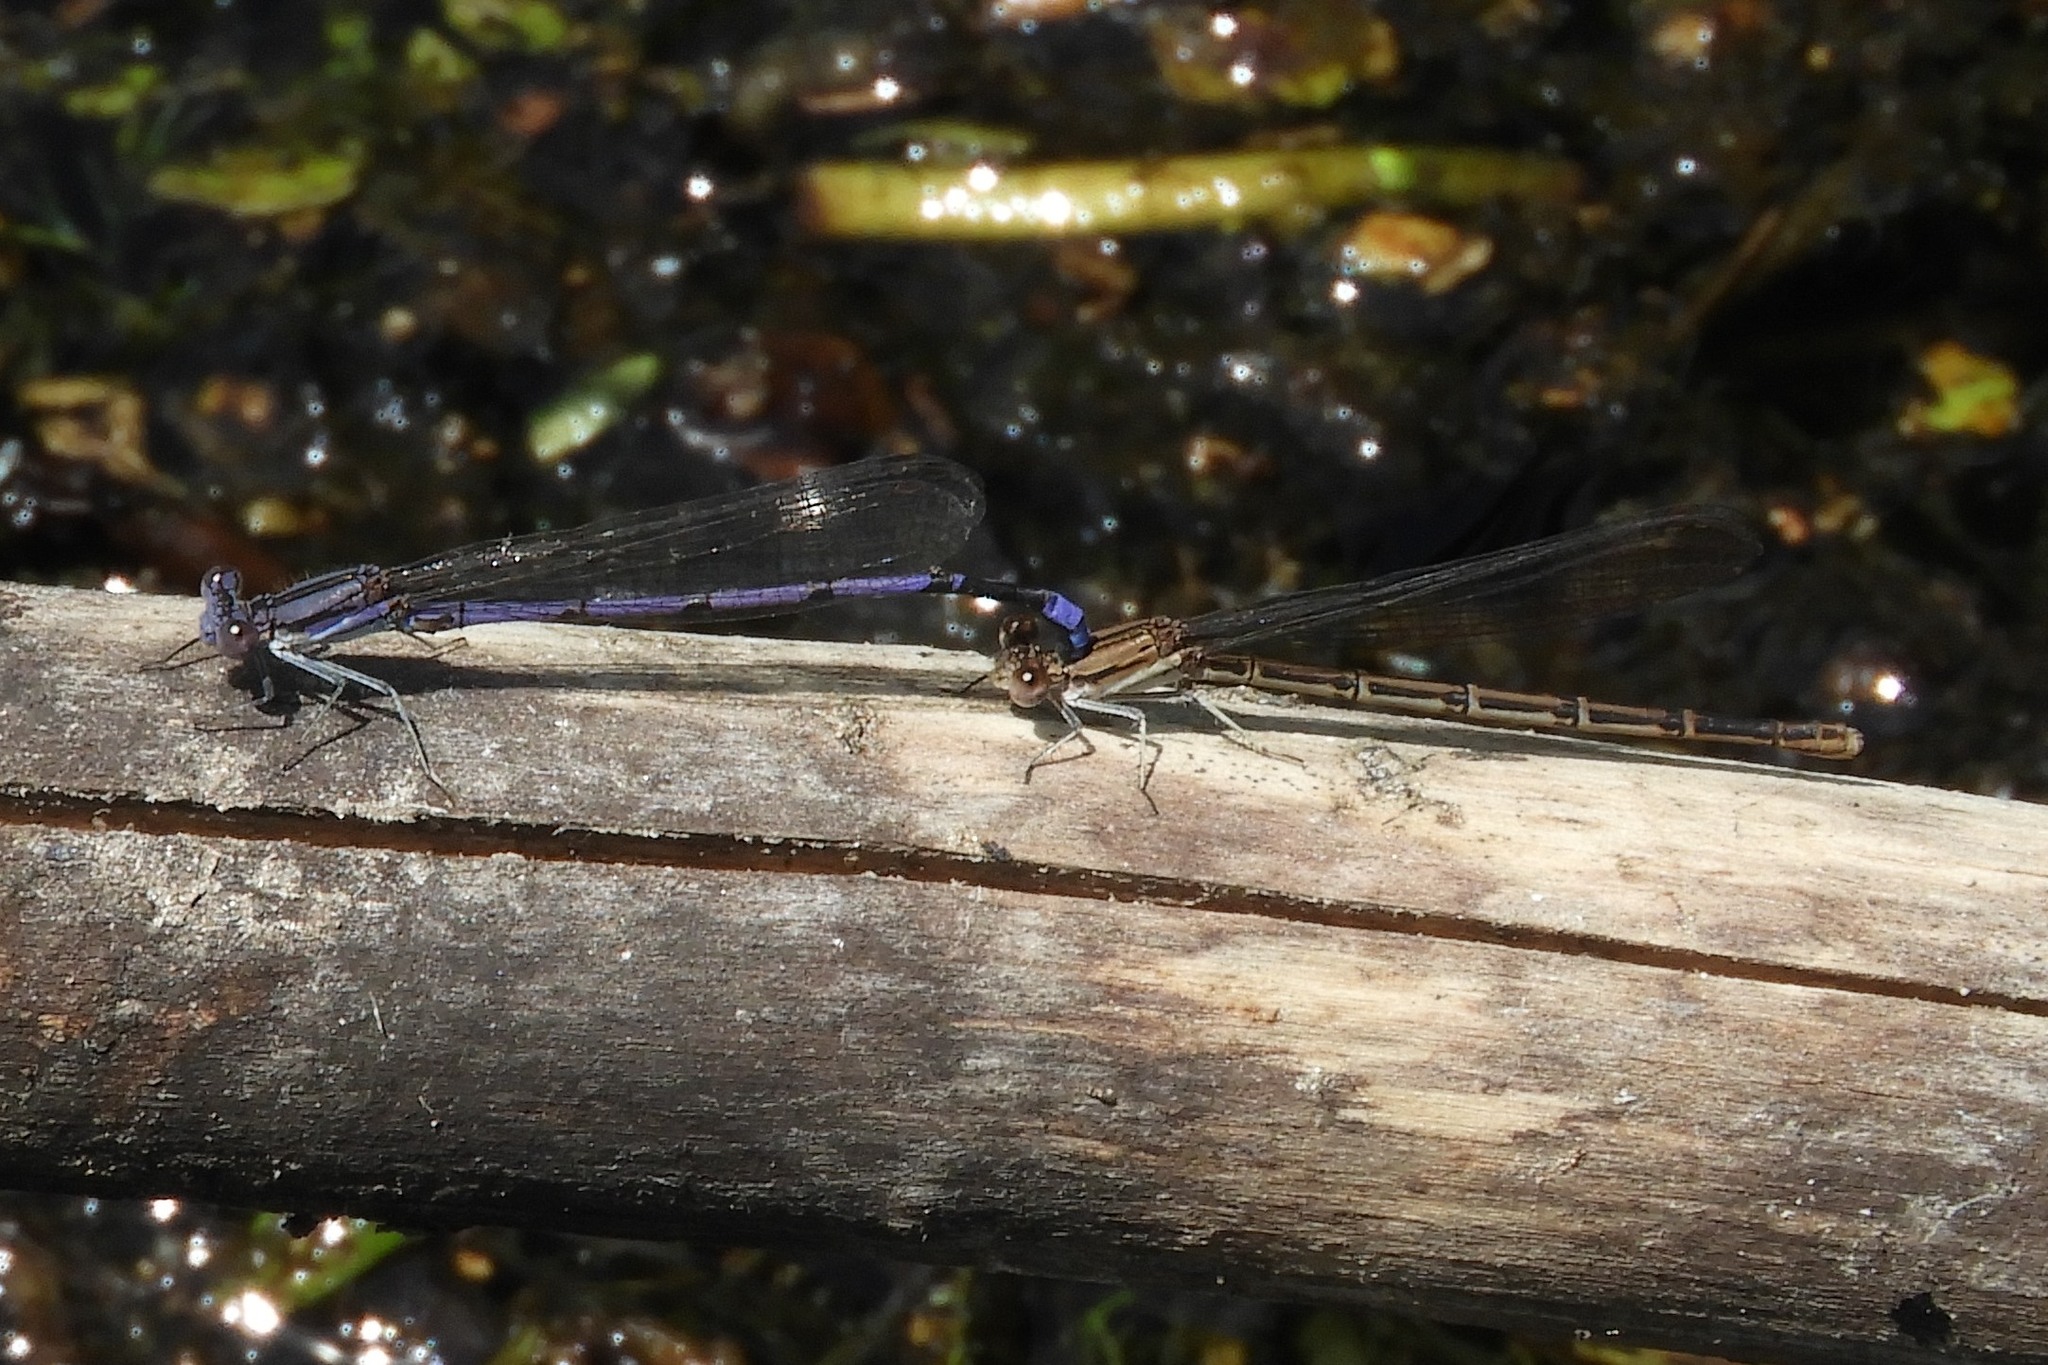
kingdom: Animalia
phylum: Arthropoda
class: Insecta
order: Odonata
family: Coenagrionidae
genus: Argia
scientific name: Argia fumipennis
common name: Variable dancer
